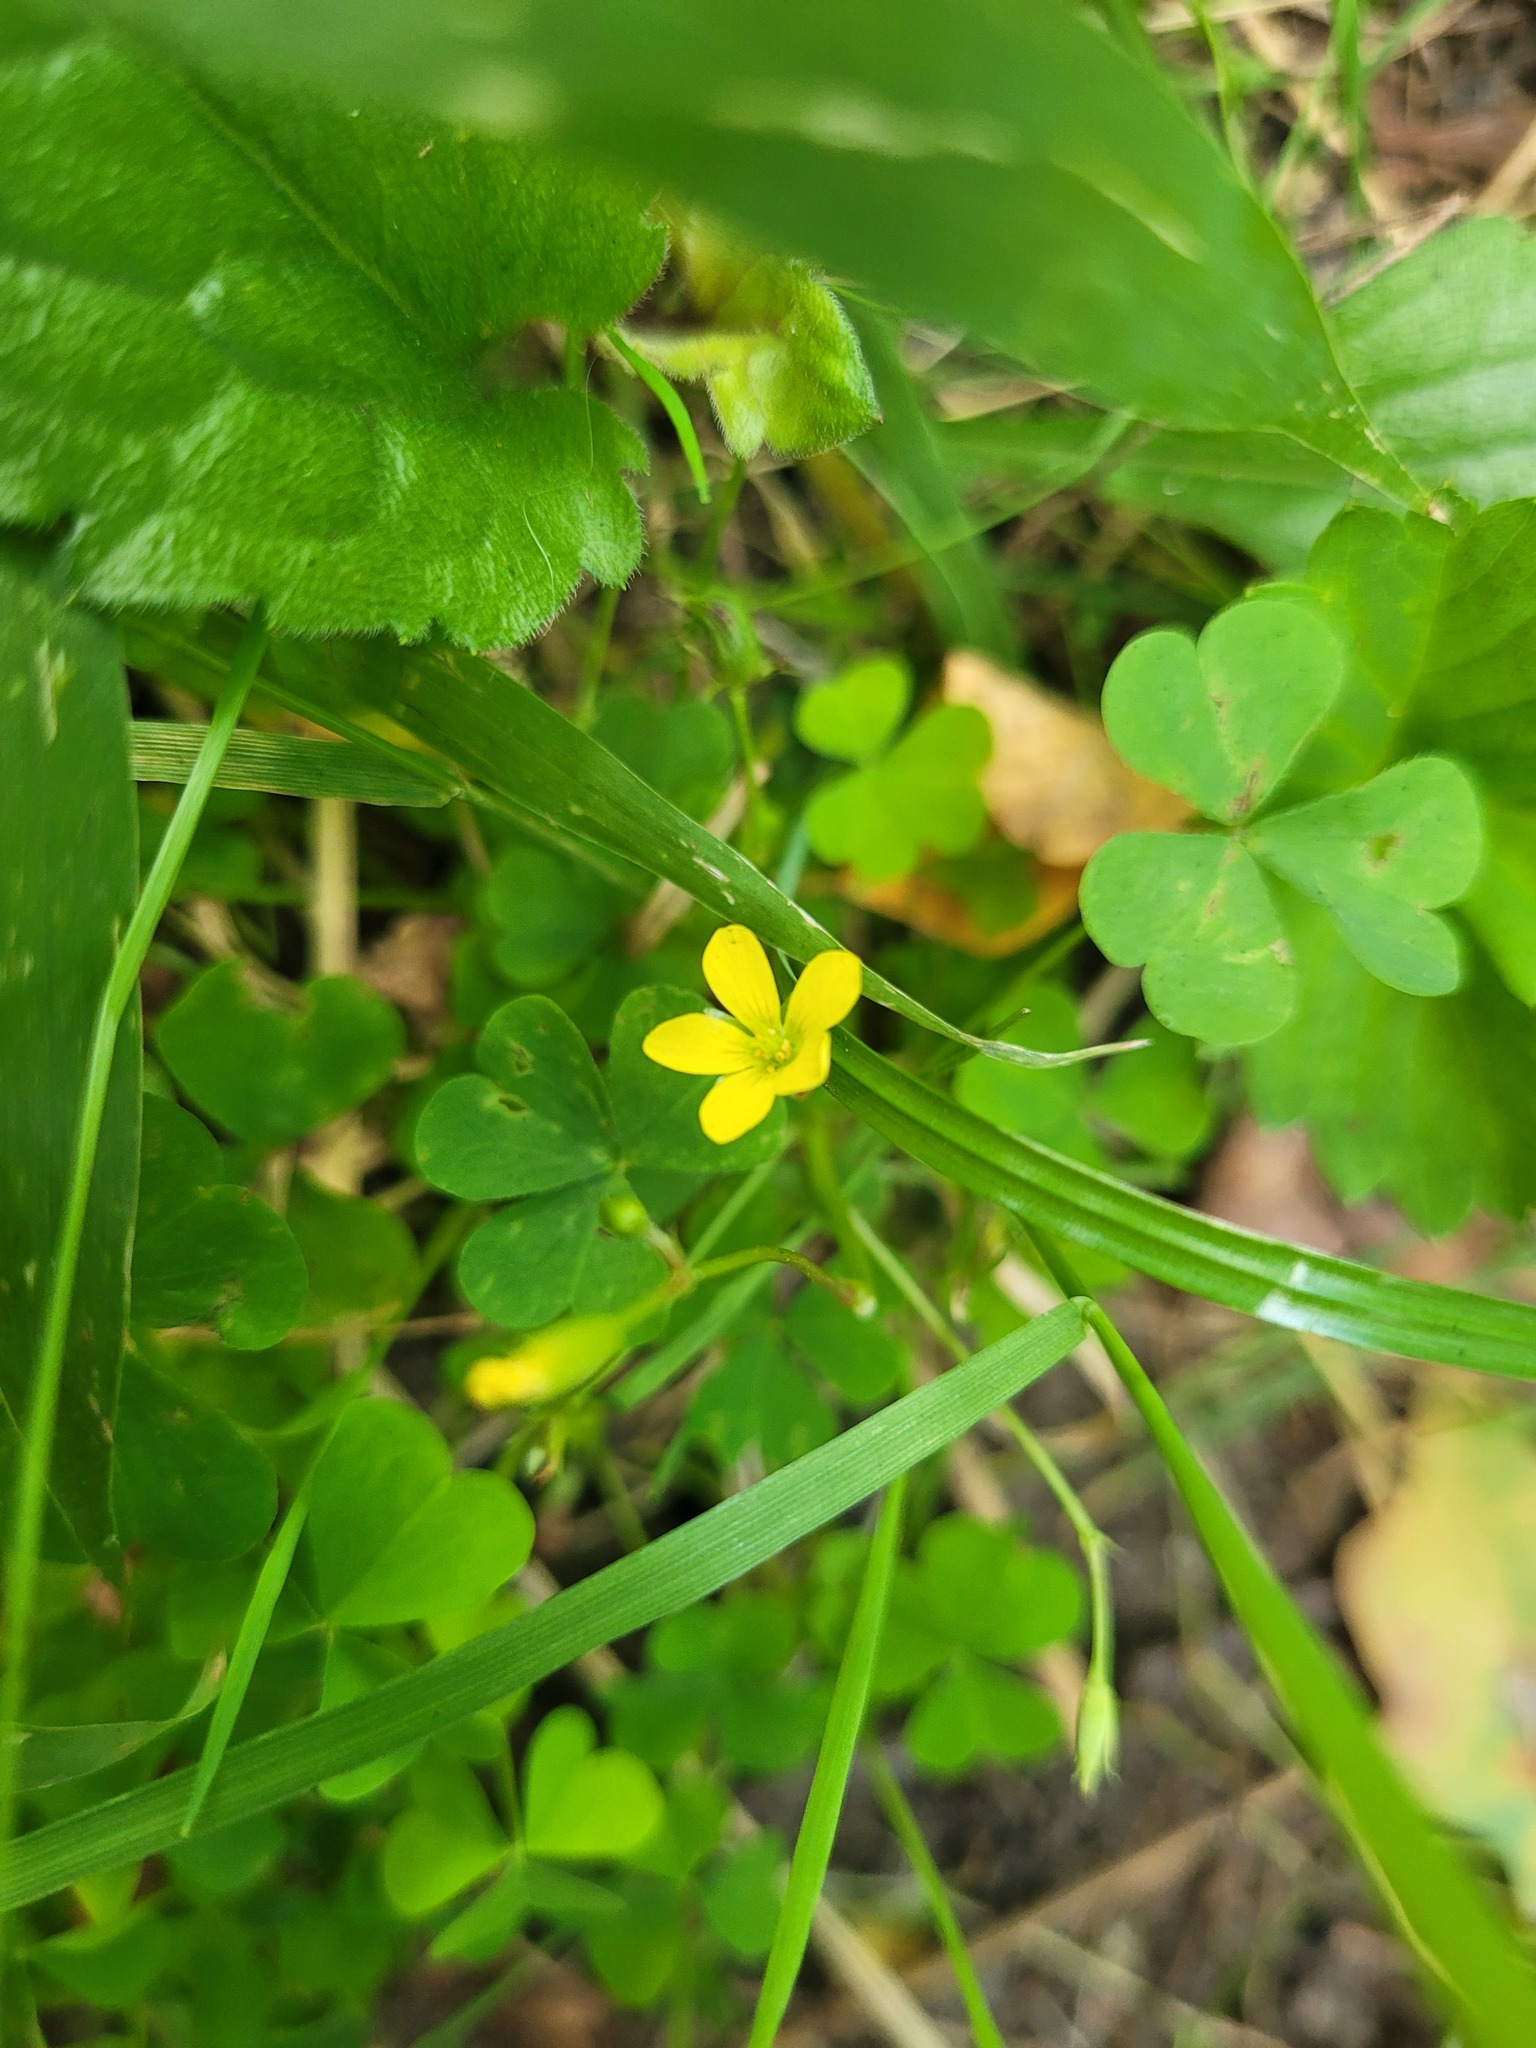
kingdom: Plantae
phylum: Tracheophyta
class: Magnoliopsida
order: Oxalidales
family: Oxalidaceae
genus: Oxalis
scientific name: Oxalis stricta
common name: Upright yellow-sorrel
